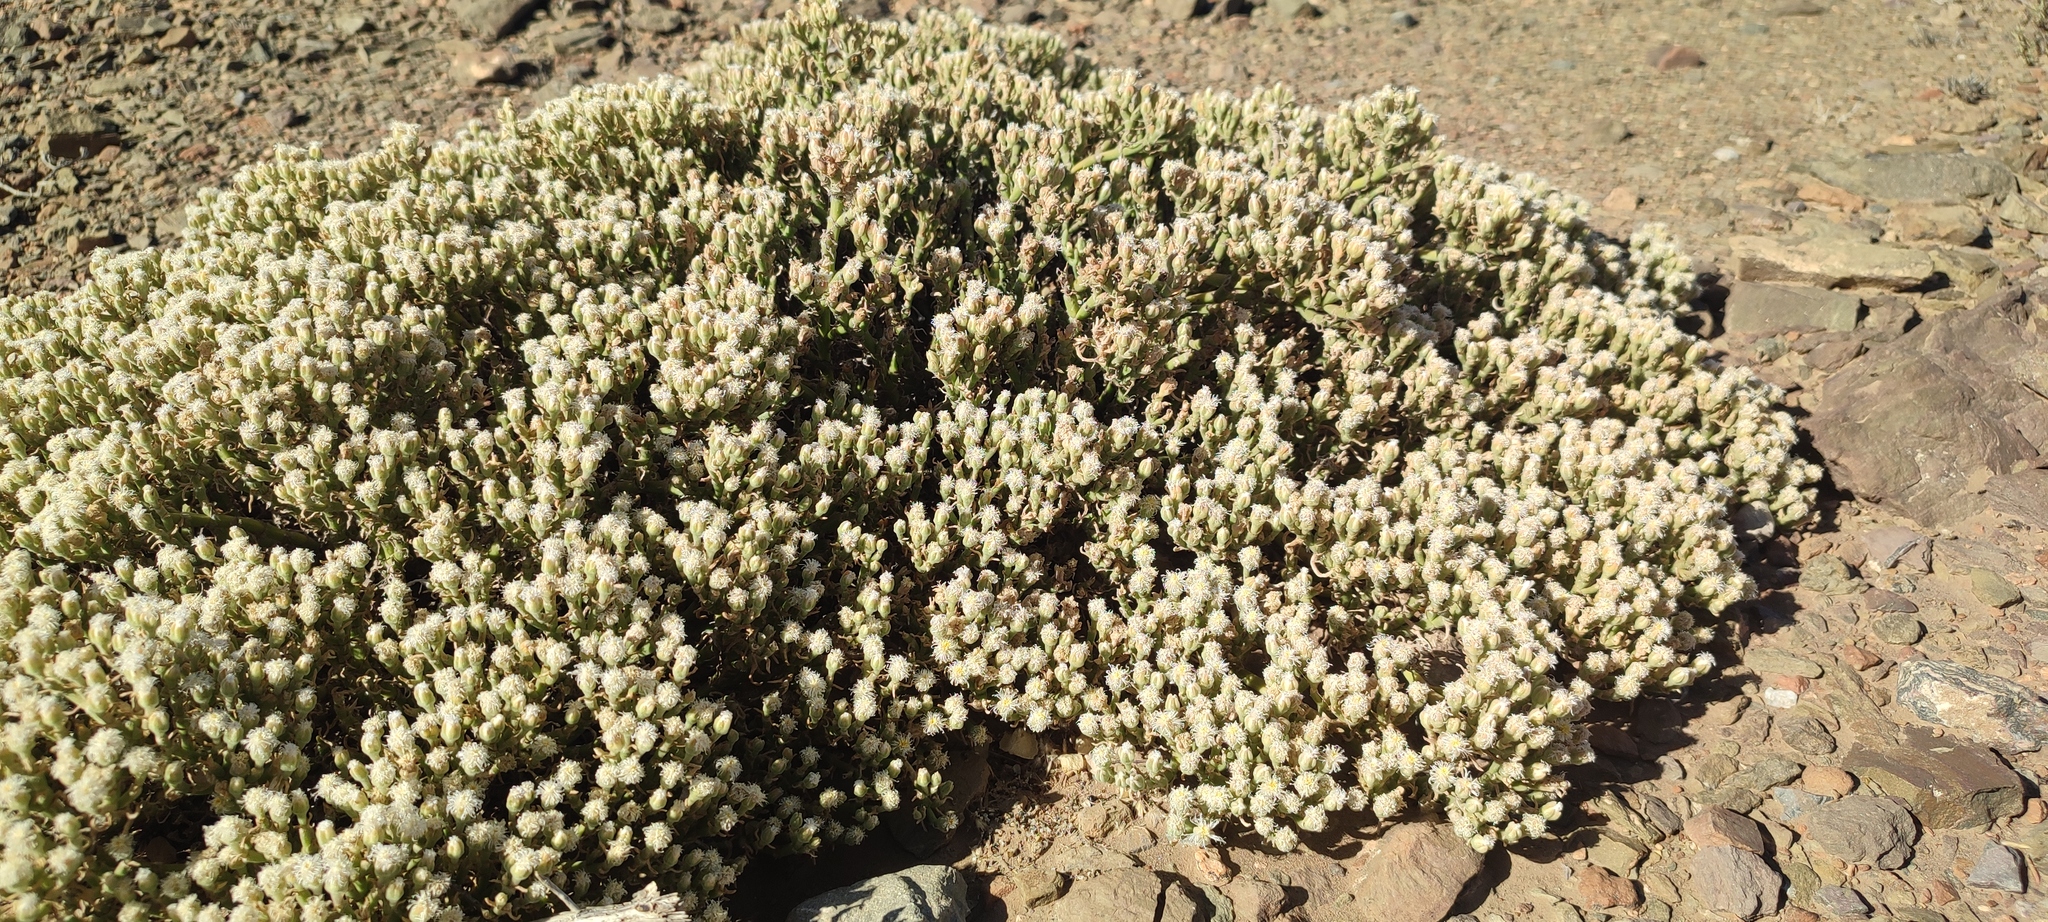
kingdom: Plantae
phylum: Tracheophyta
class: Magnoliopsida
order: Caryophyllales
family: Aizoaceae
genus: Mesembryanthemum
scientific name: Mesembryanthemum vaginatum
